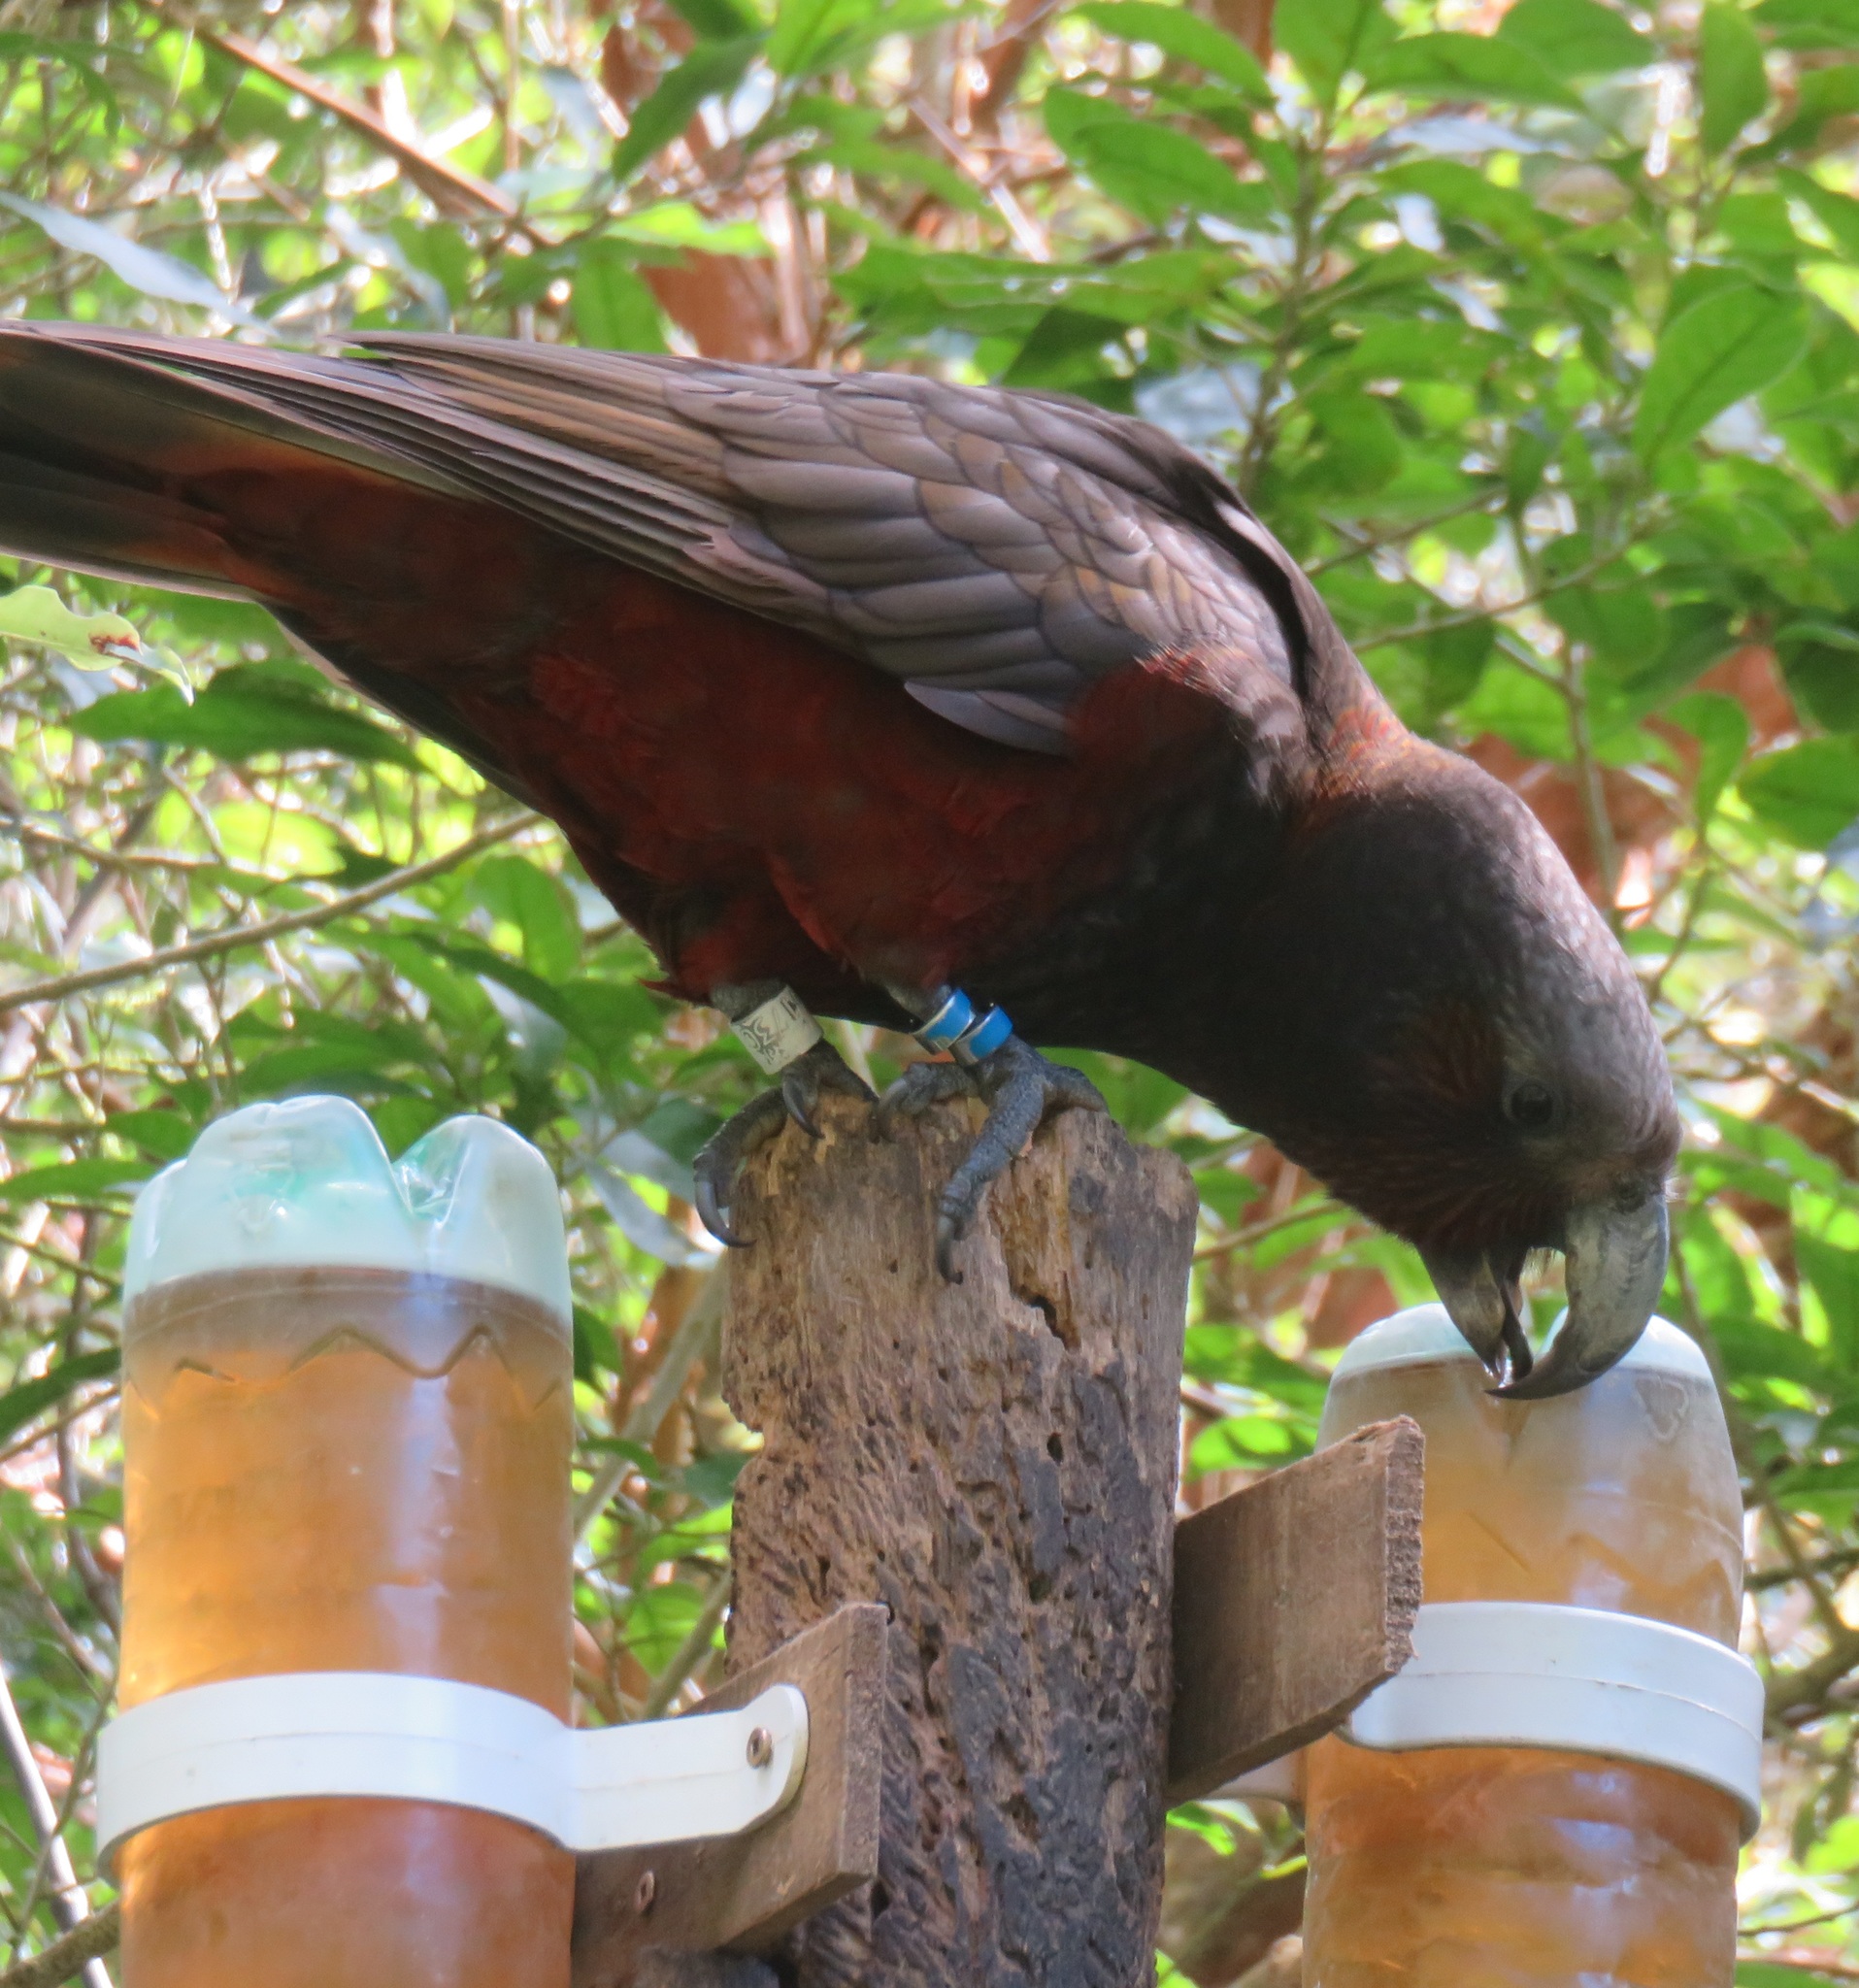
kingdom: Animalia
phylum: Chordata
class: Aves
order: Psittaciformes
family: Psittacidae
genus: Nestor
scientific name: Nestor meridionalis
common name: New zealand kaka
